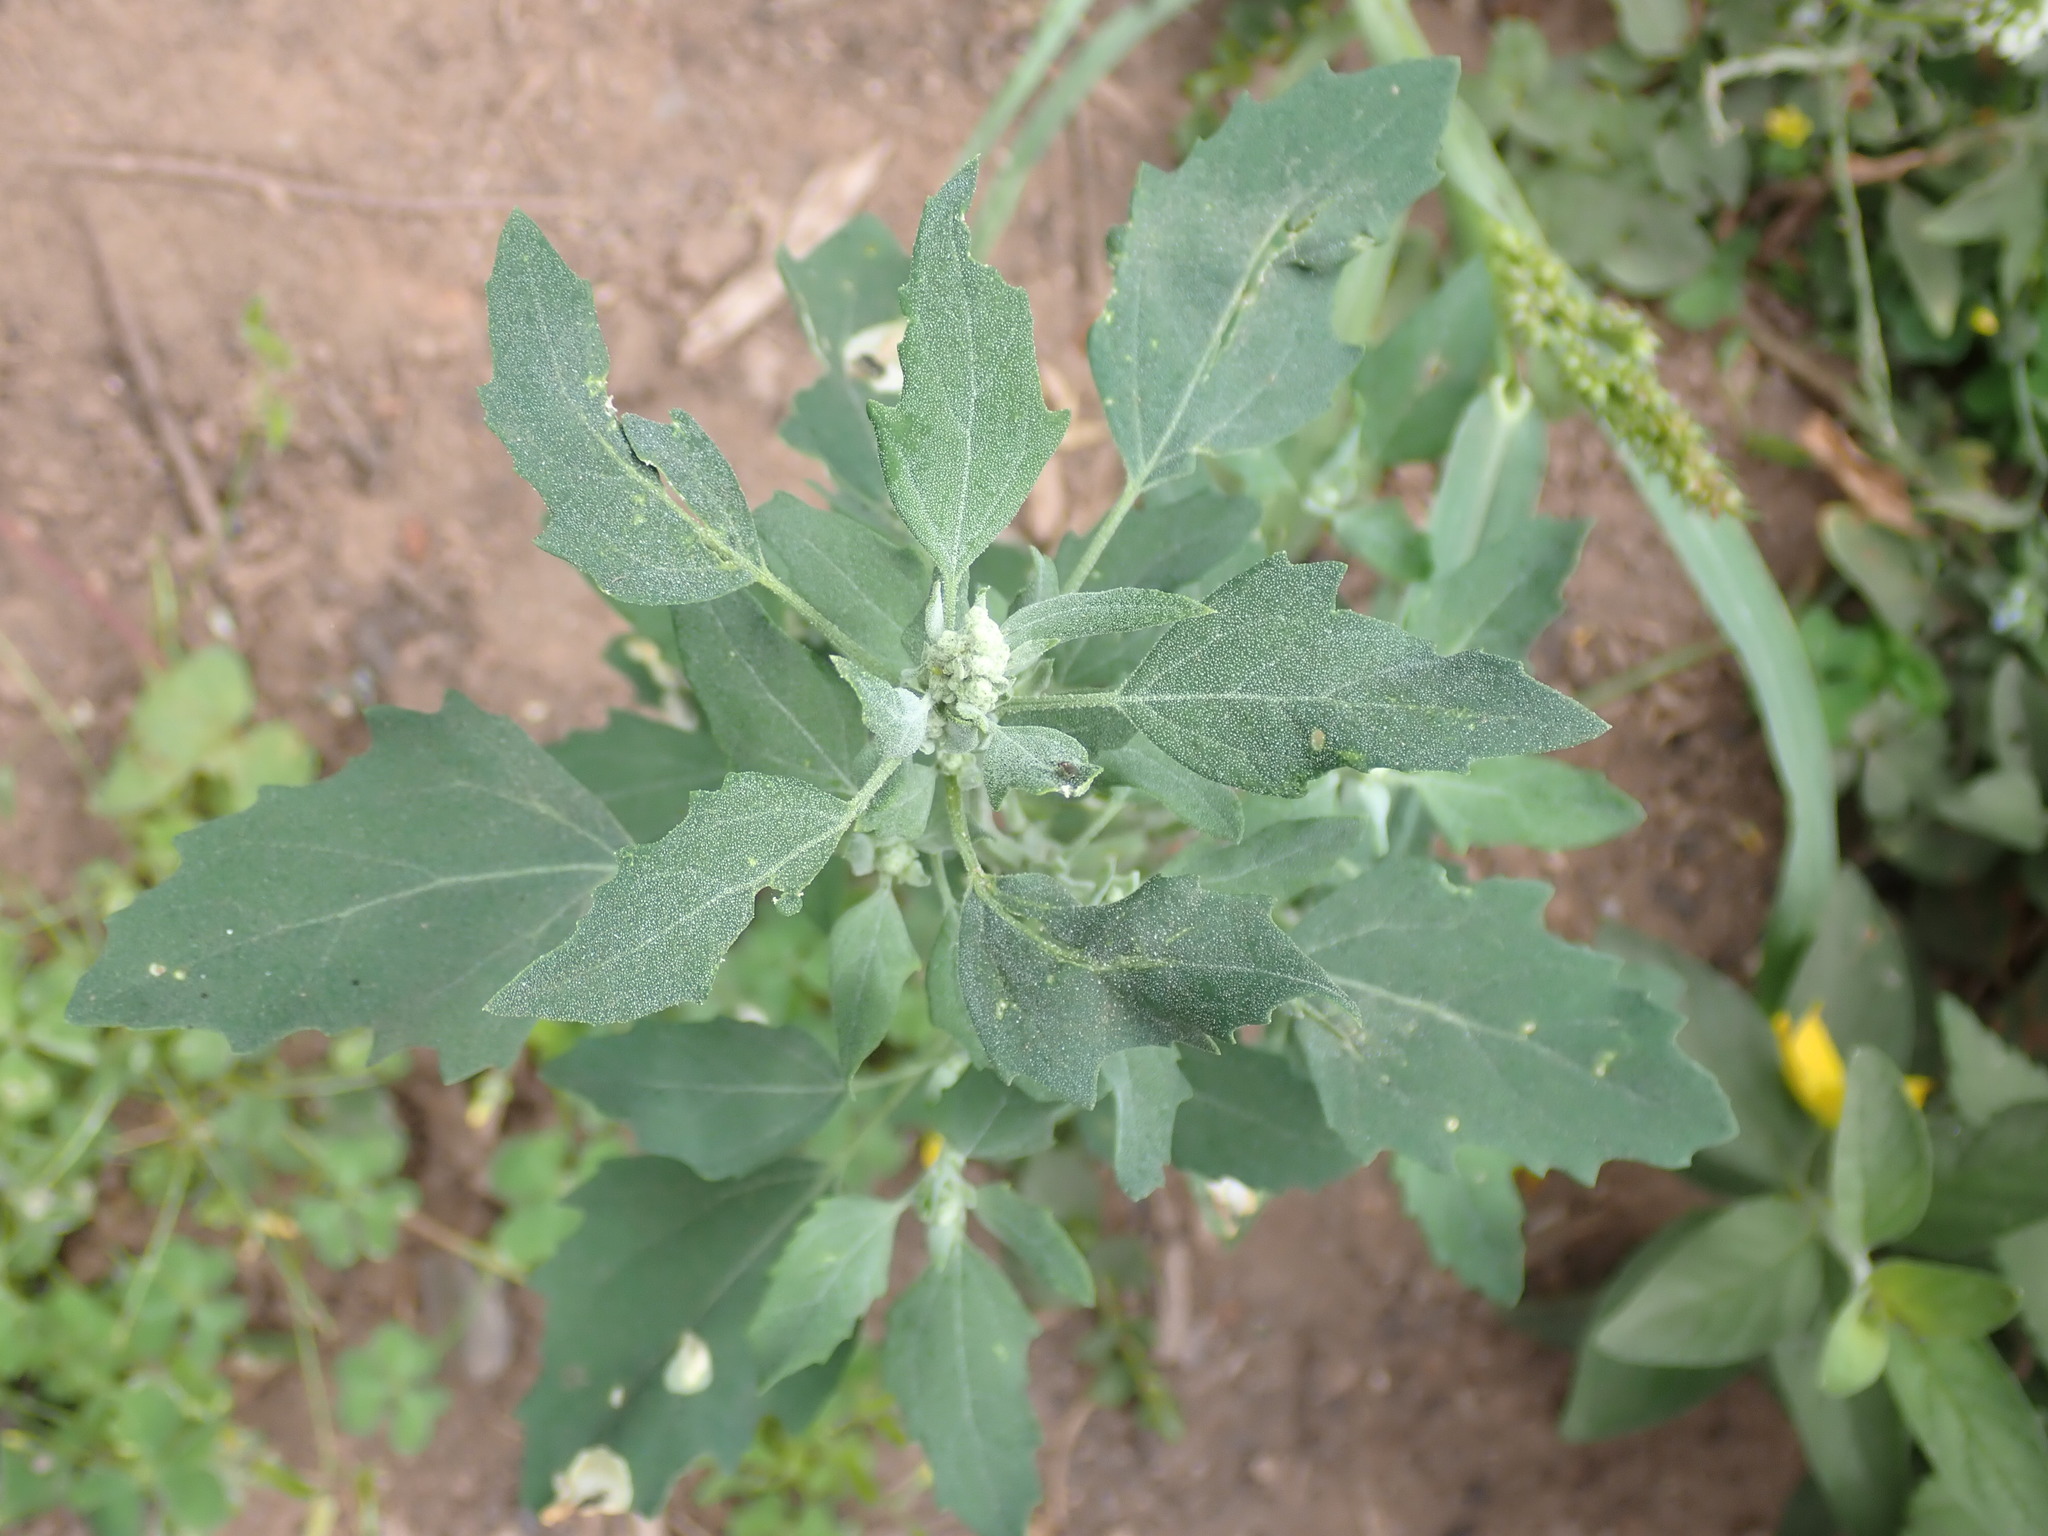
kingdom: Plantae
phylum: Tracheophyta
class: Magnoliopsida
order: Caryophyllales
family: Amaranthaceae
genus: Chenopodium
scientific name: Chenopodium album
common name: Fat-hen
